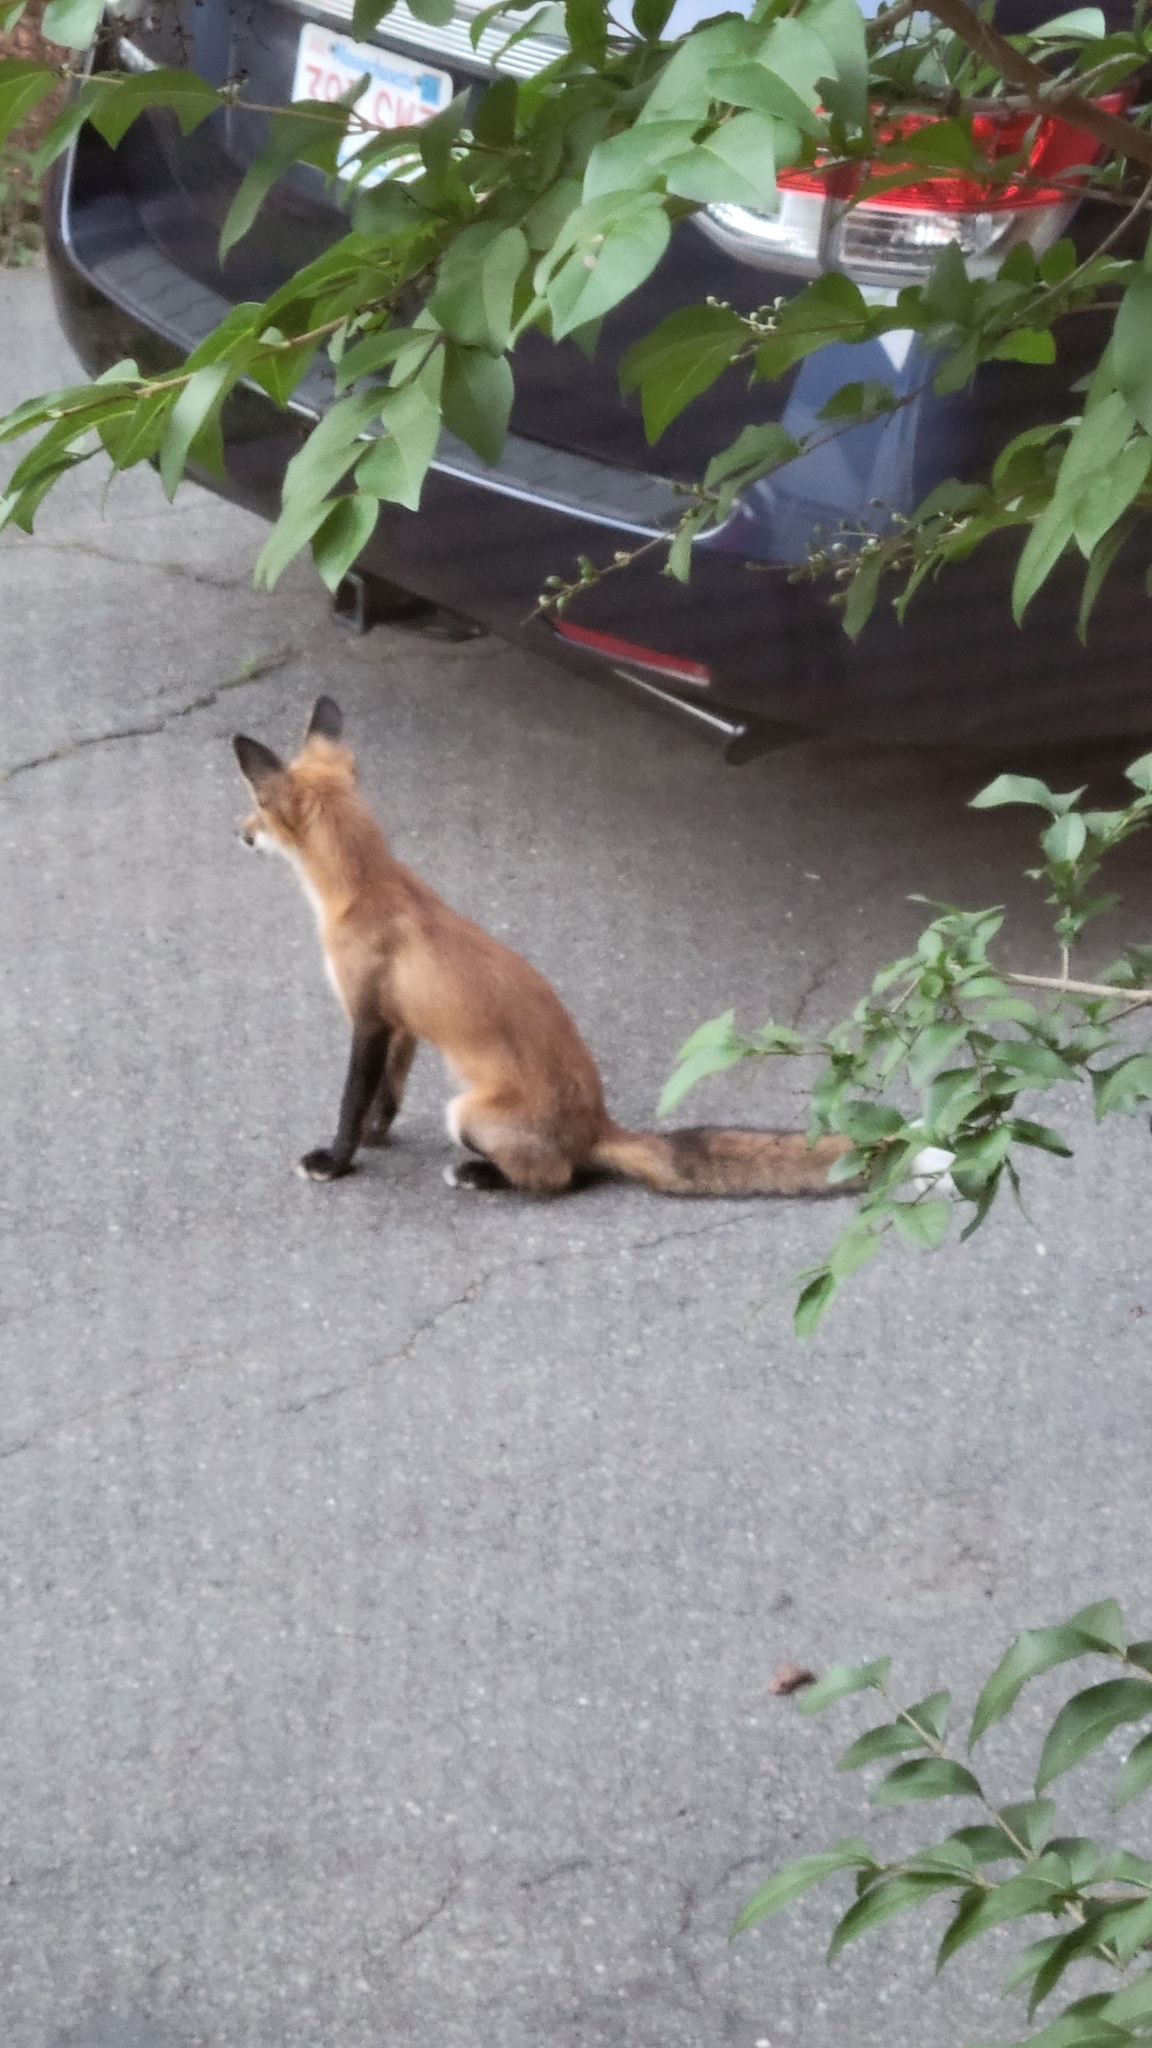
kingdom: Animalia
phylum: Chordata
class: Mammalia
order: Carnivora
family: Canidae
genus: Vulpes
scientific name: Vulpes vulpes
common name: Red fox
